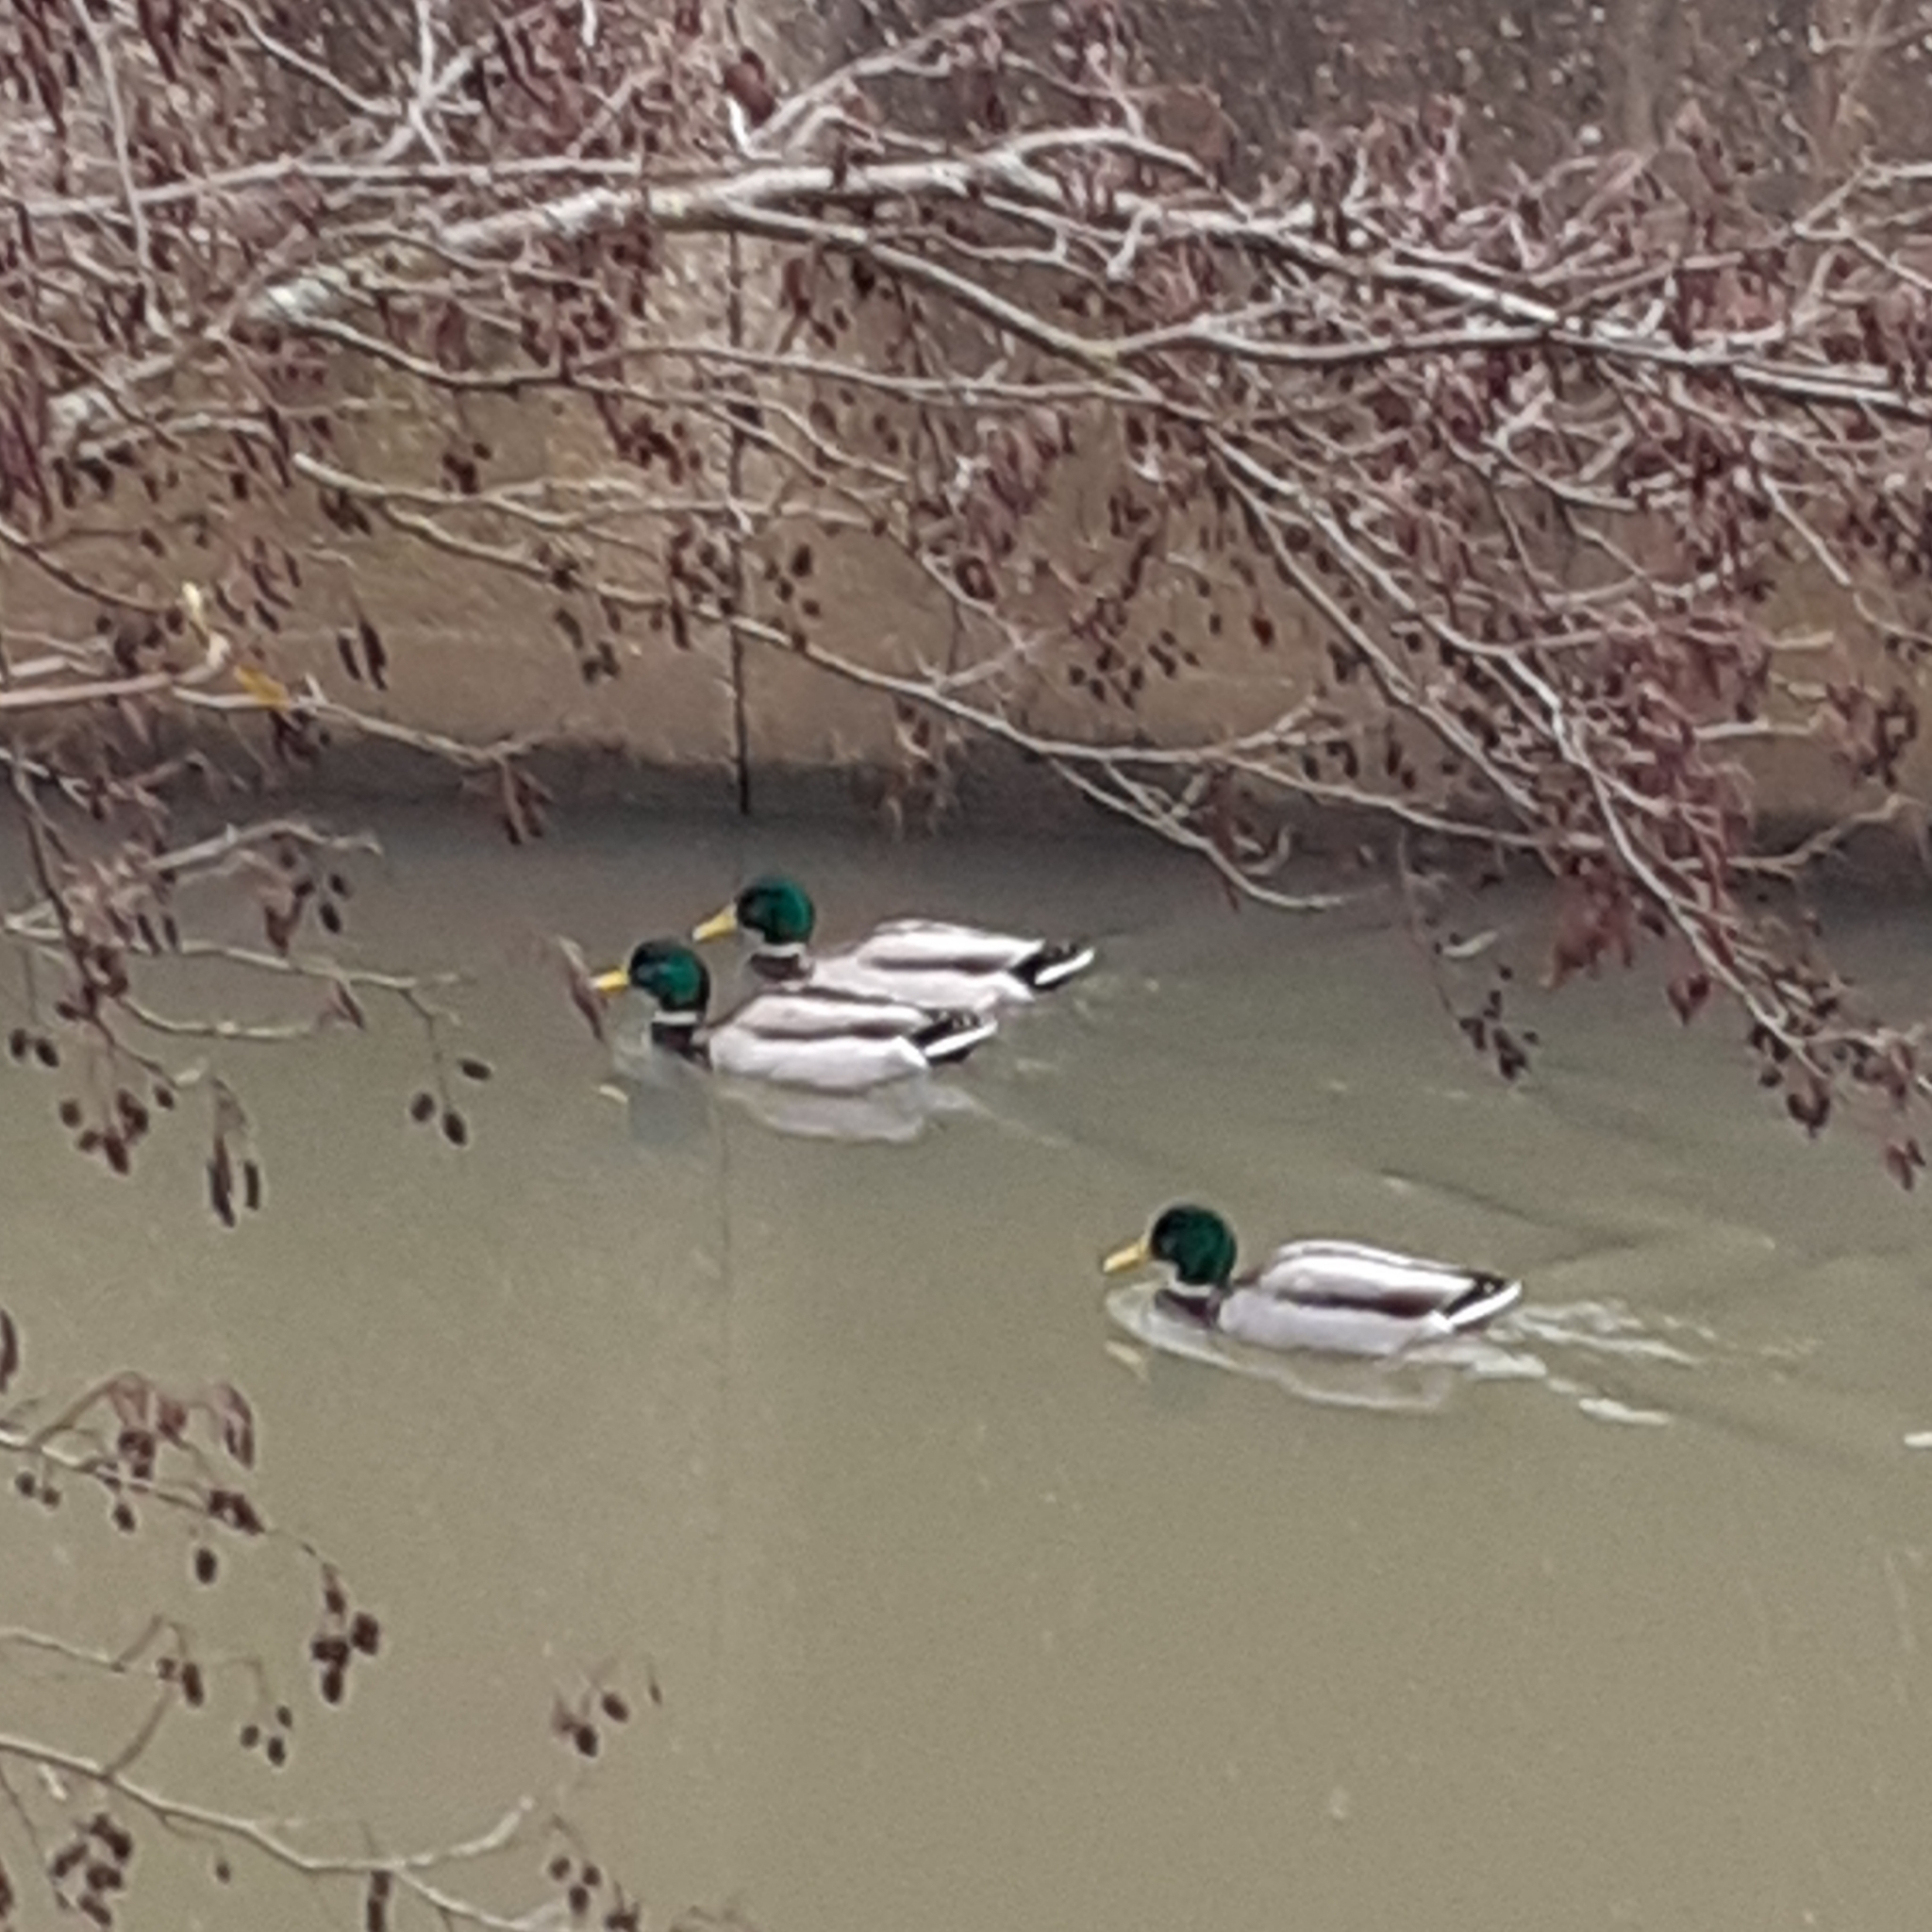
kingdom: Animalia
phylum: Chordata
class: Aves
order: Anseriformes
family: Anatidae
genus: Anas
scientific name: Anas platyrhynchos
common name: Mallard
